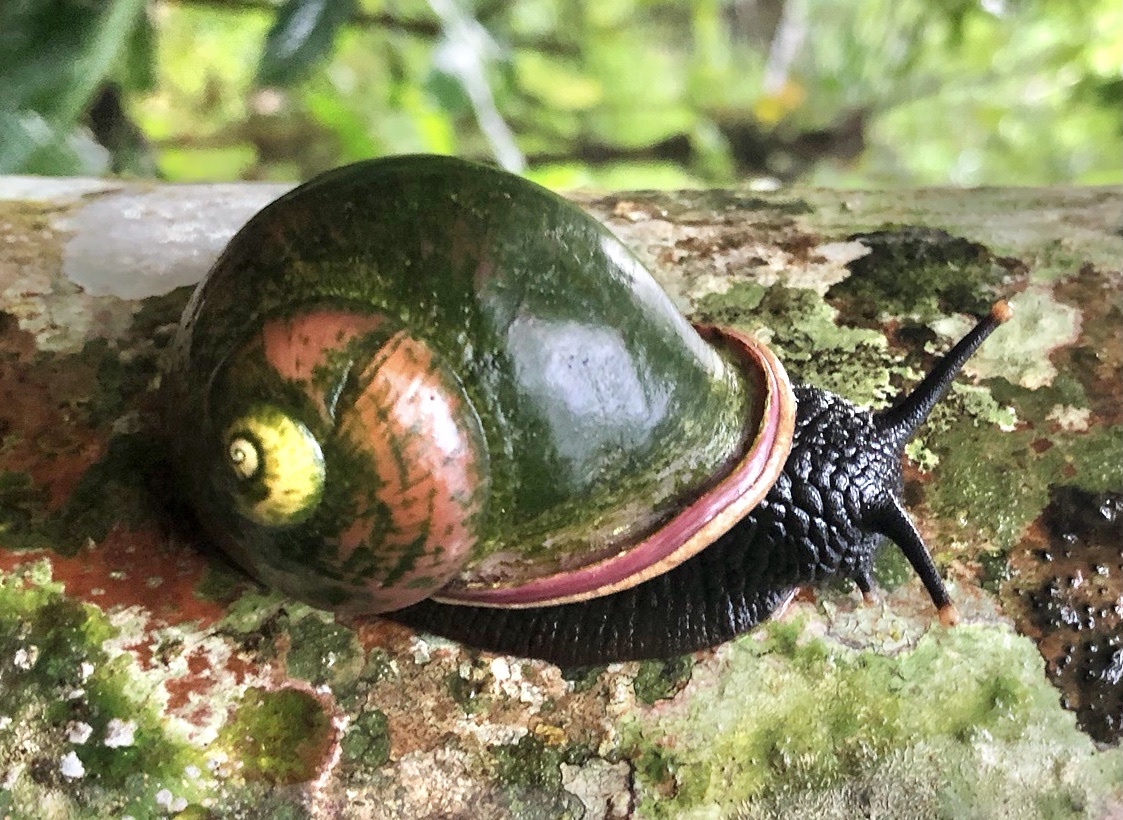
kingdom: Animalia
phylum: Mollusca
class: Gastropoda
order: Stylommatophora
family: Acavidae
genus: Acavus
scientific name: Acavus superbus
